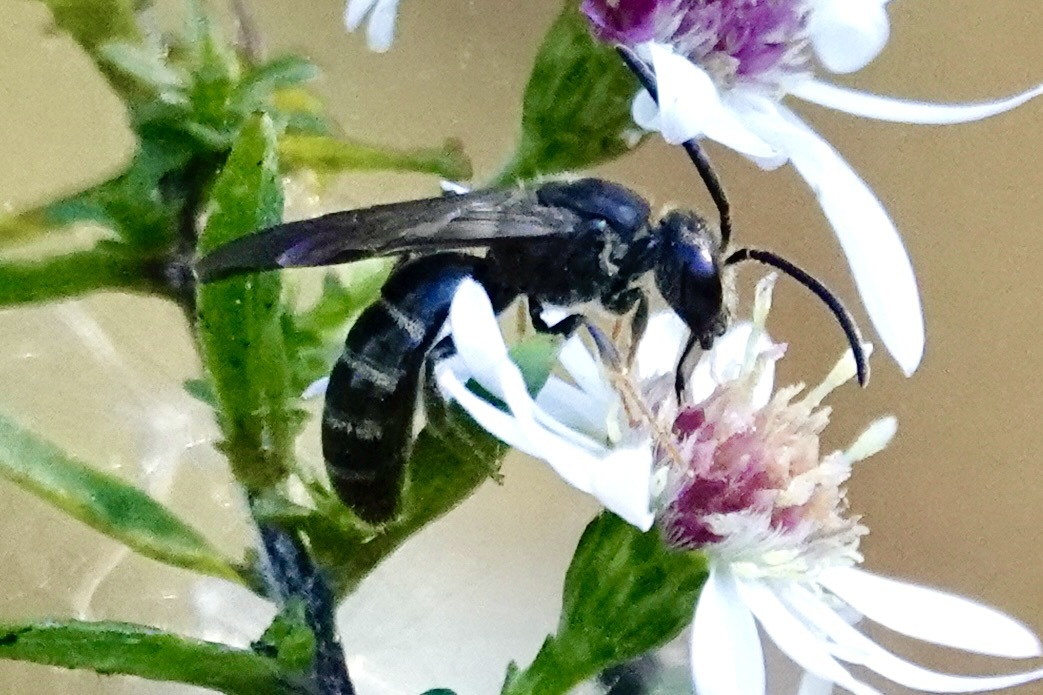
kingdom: Animalia
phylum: Arthropoda
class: Insecta
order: Hymenoptera
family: Halictidae
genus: Lasioglossum
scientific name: Lasioglossum fuscipenne
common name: Brown-winged sweat bee
